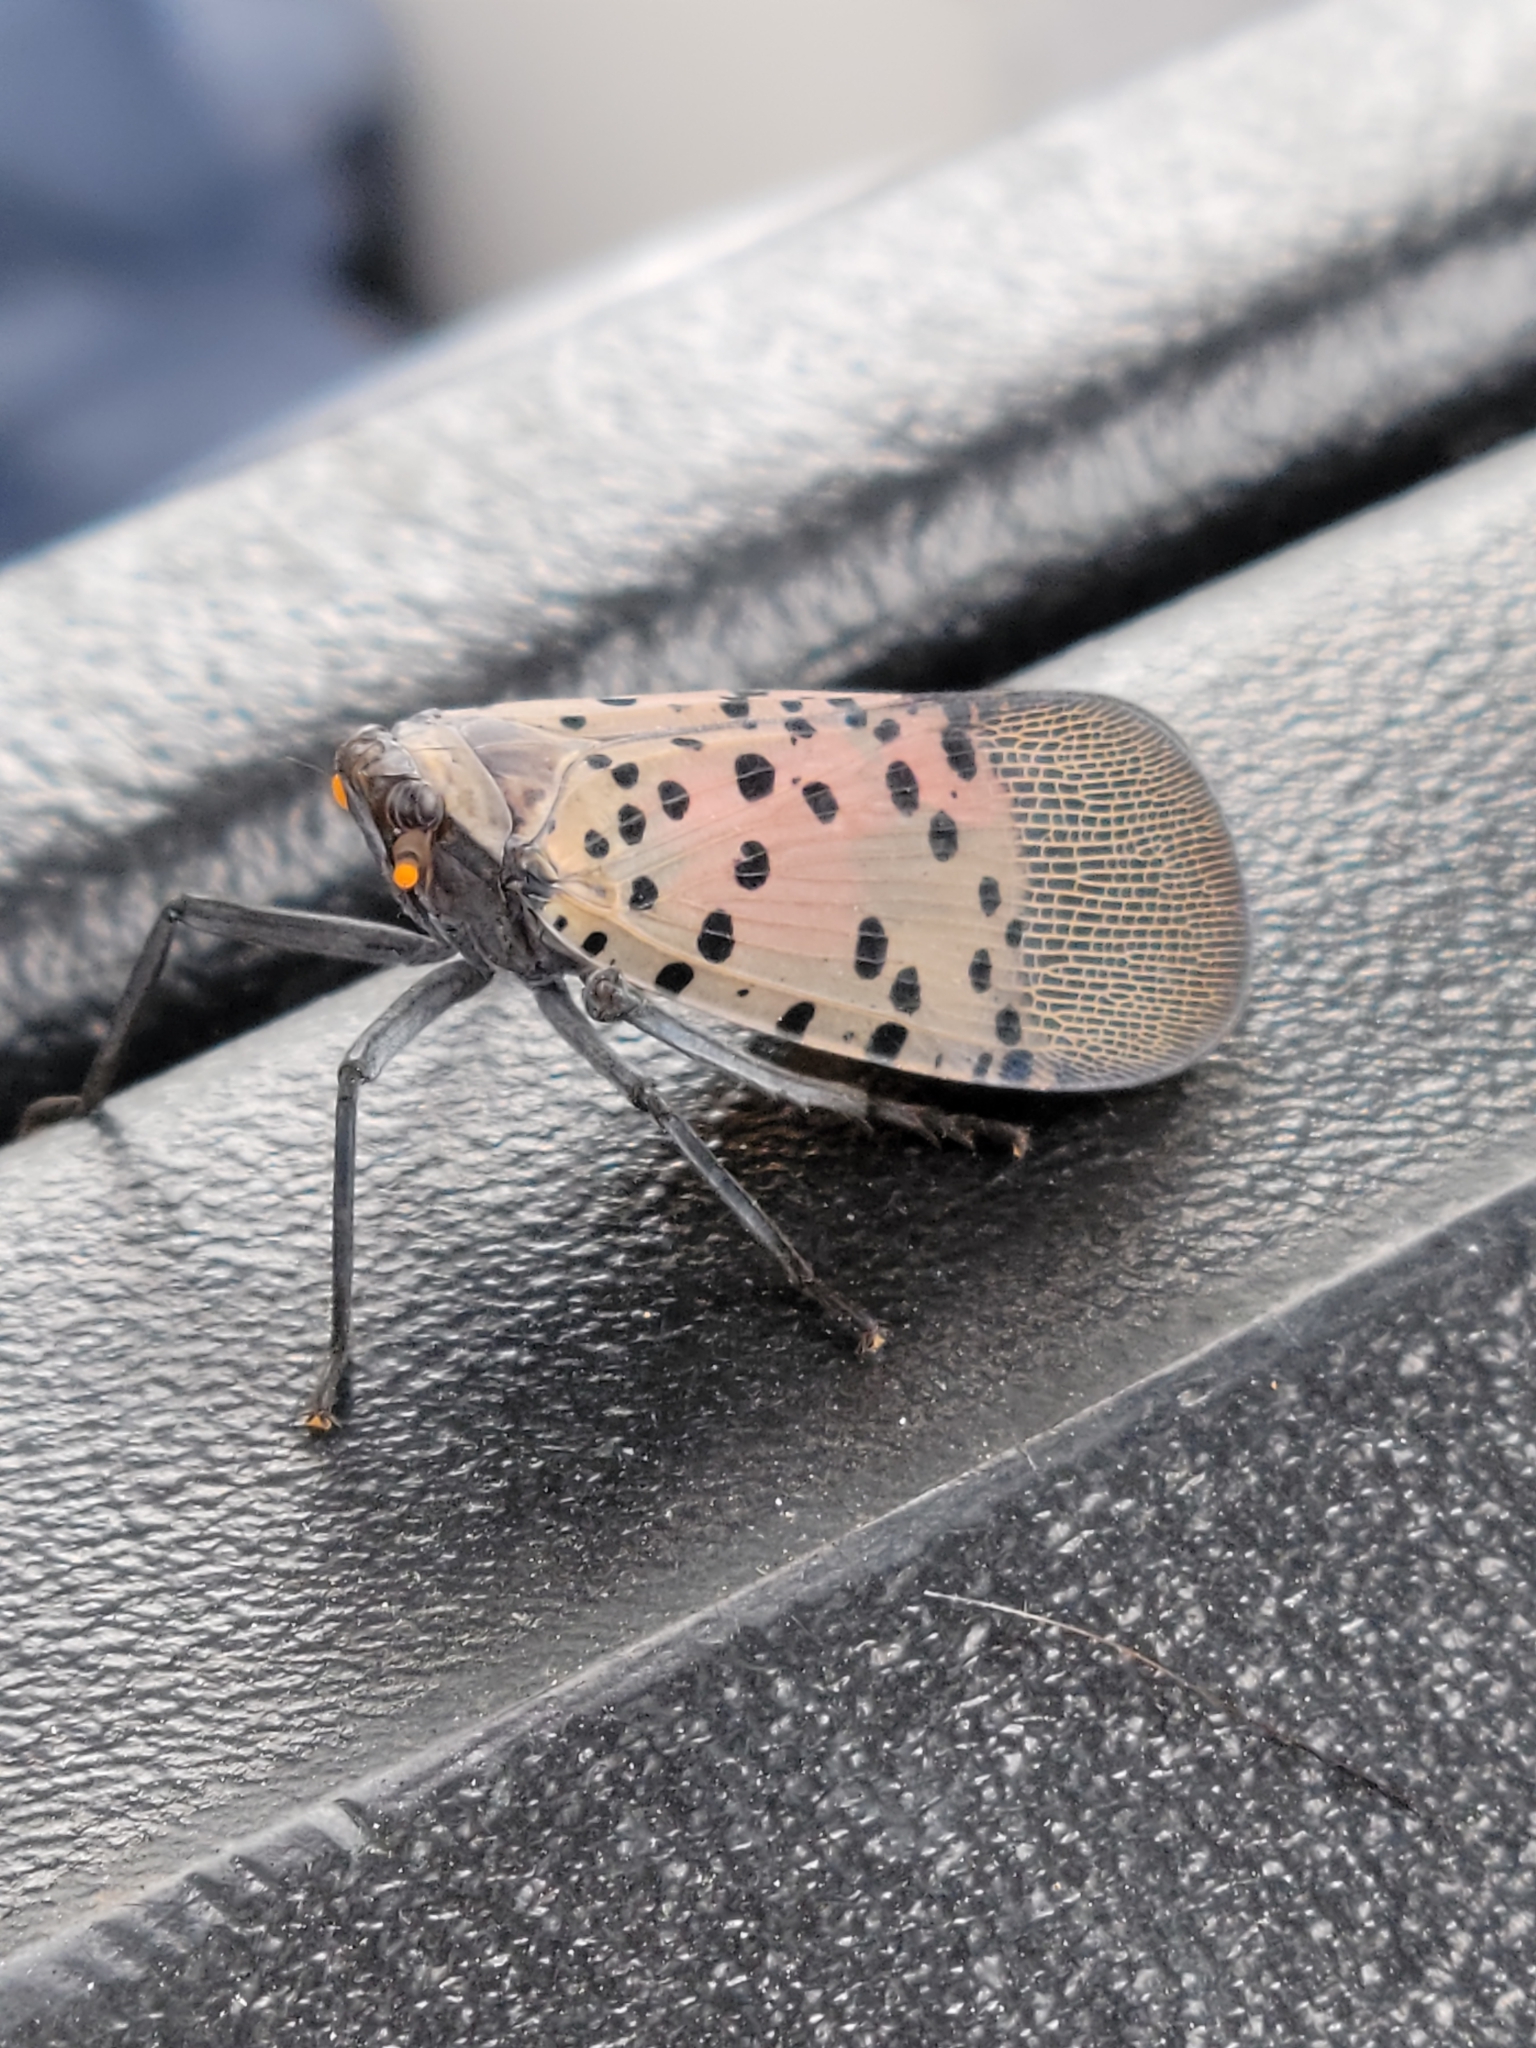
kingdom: Animalia
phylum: Arthropoda
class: Insecta
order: Hemiptera
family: Fulgoridae
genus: Lycorma
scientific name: Lycorma delicatula
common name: Spotted lanternfly
